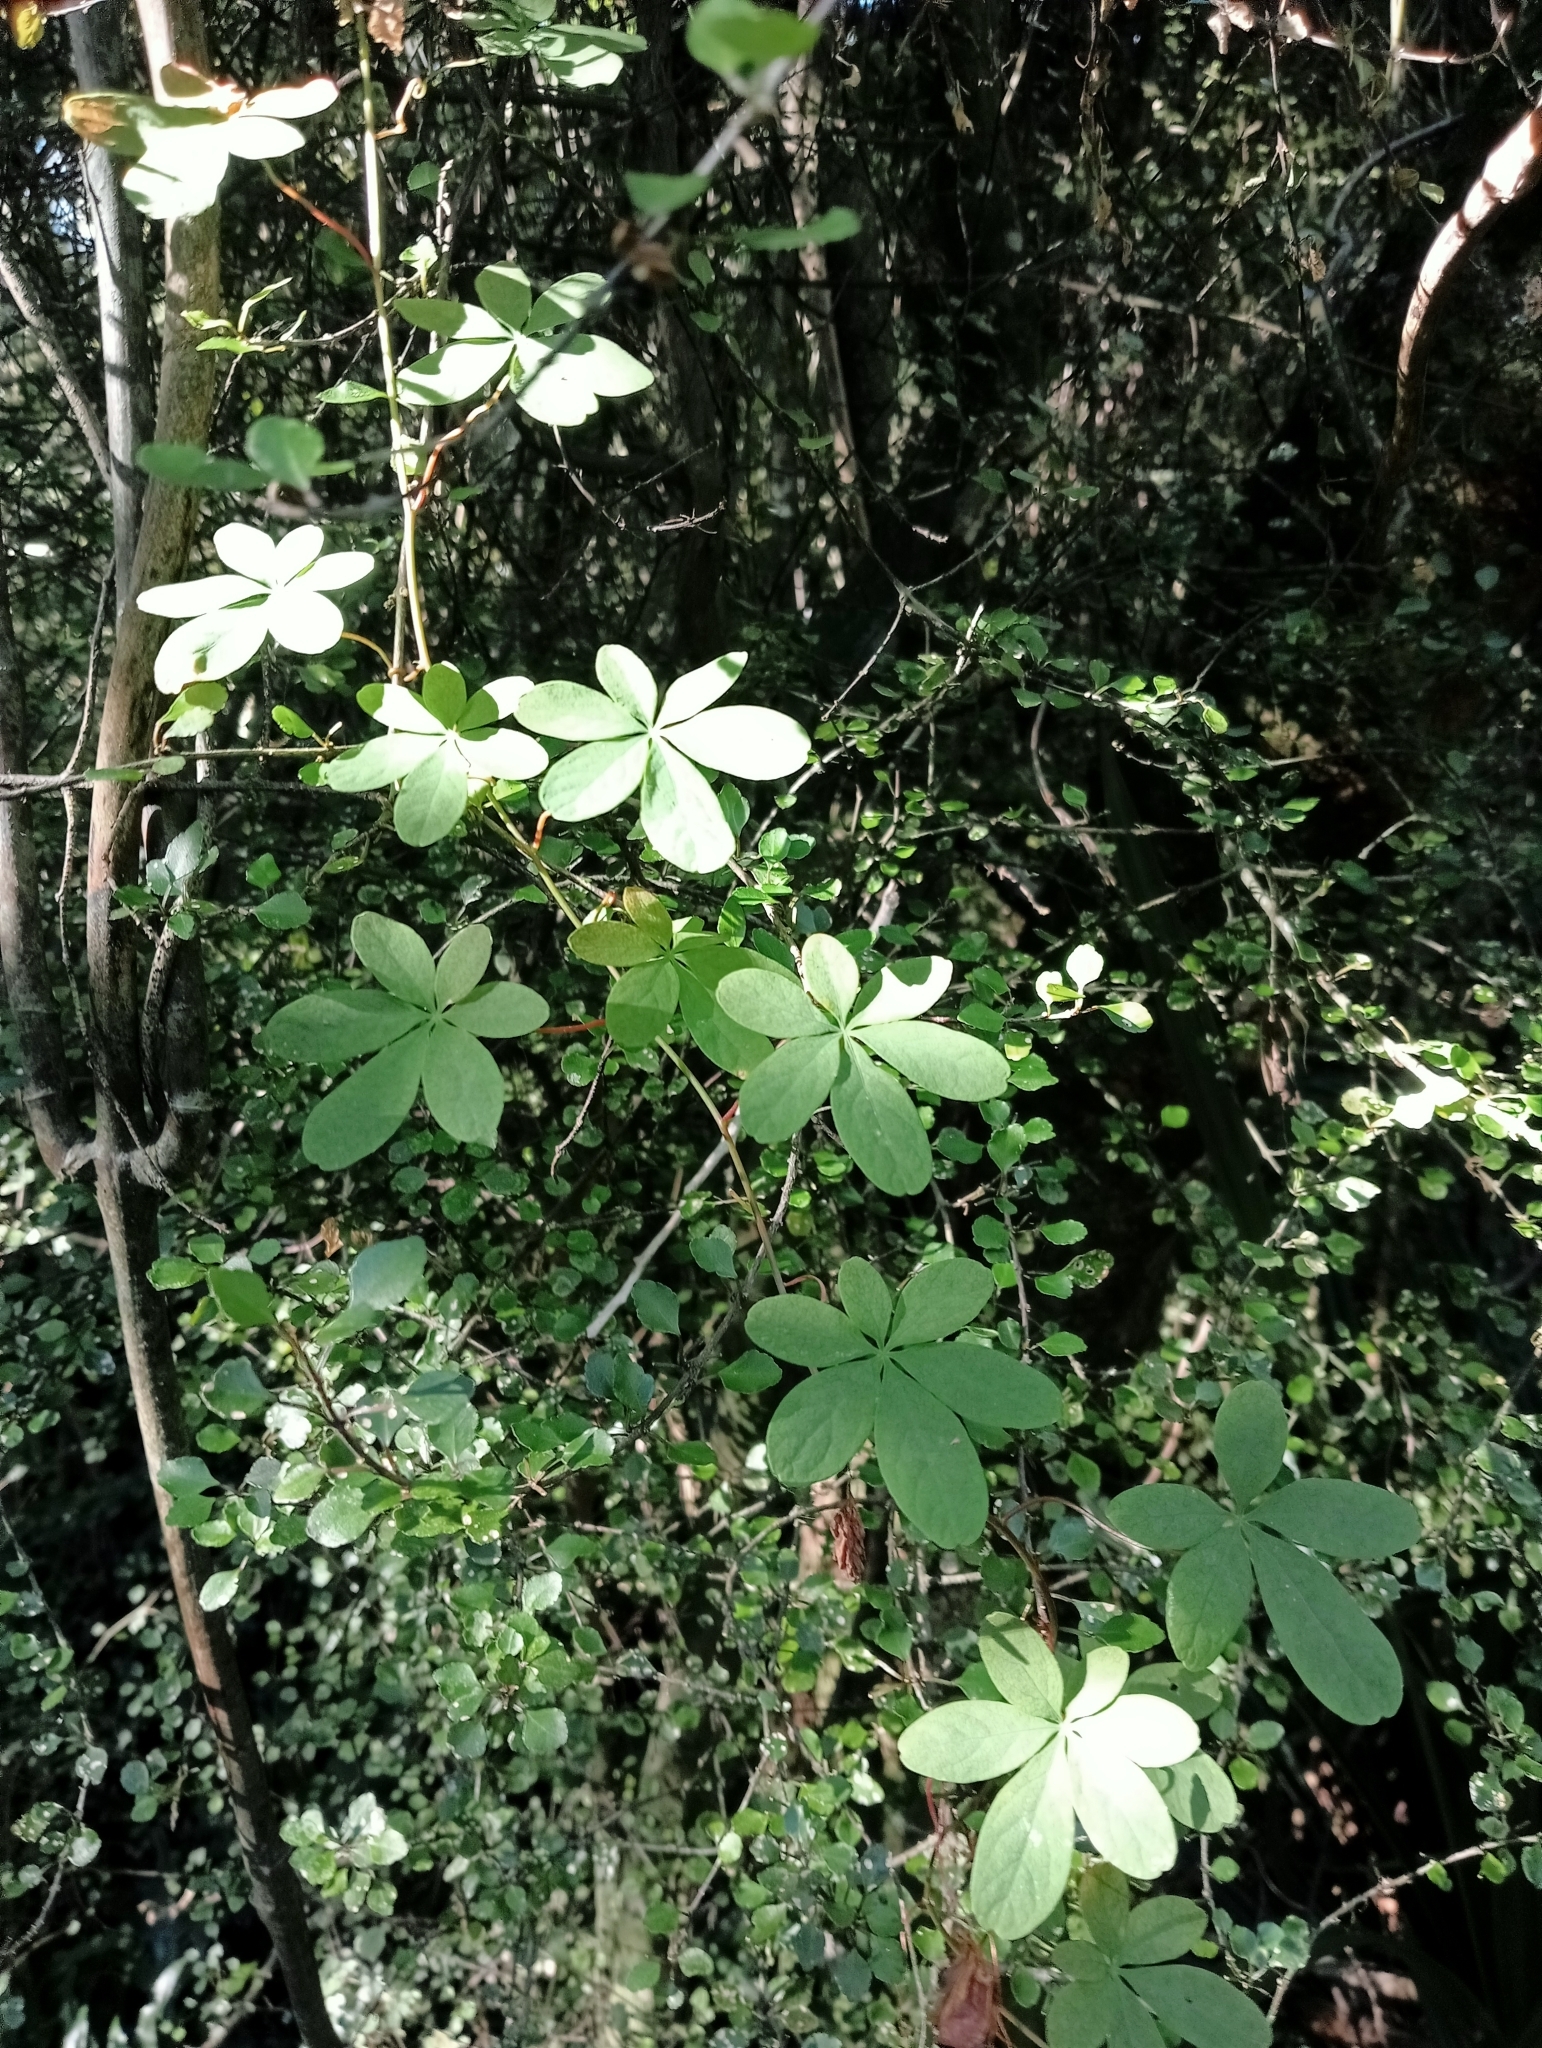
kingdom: Plantae
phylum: Tracheophyta
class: Magnoliopsida
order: Brassicales
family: Tropaeolaceae
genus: Tropaeolum
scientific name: Tropaeolum speciosum
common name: Flame nasturtium
